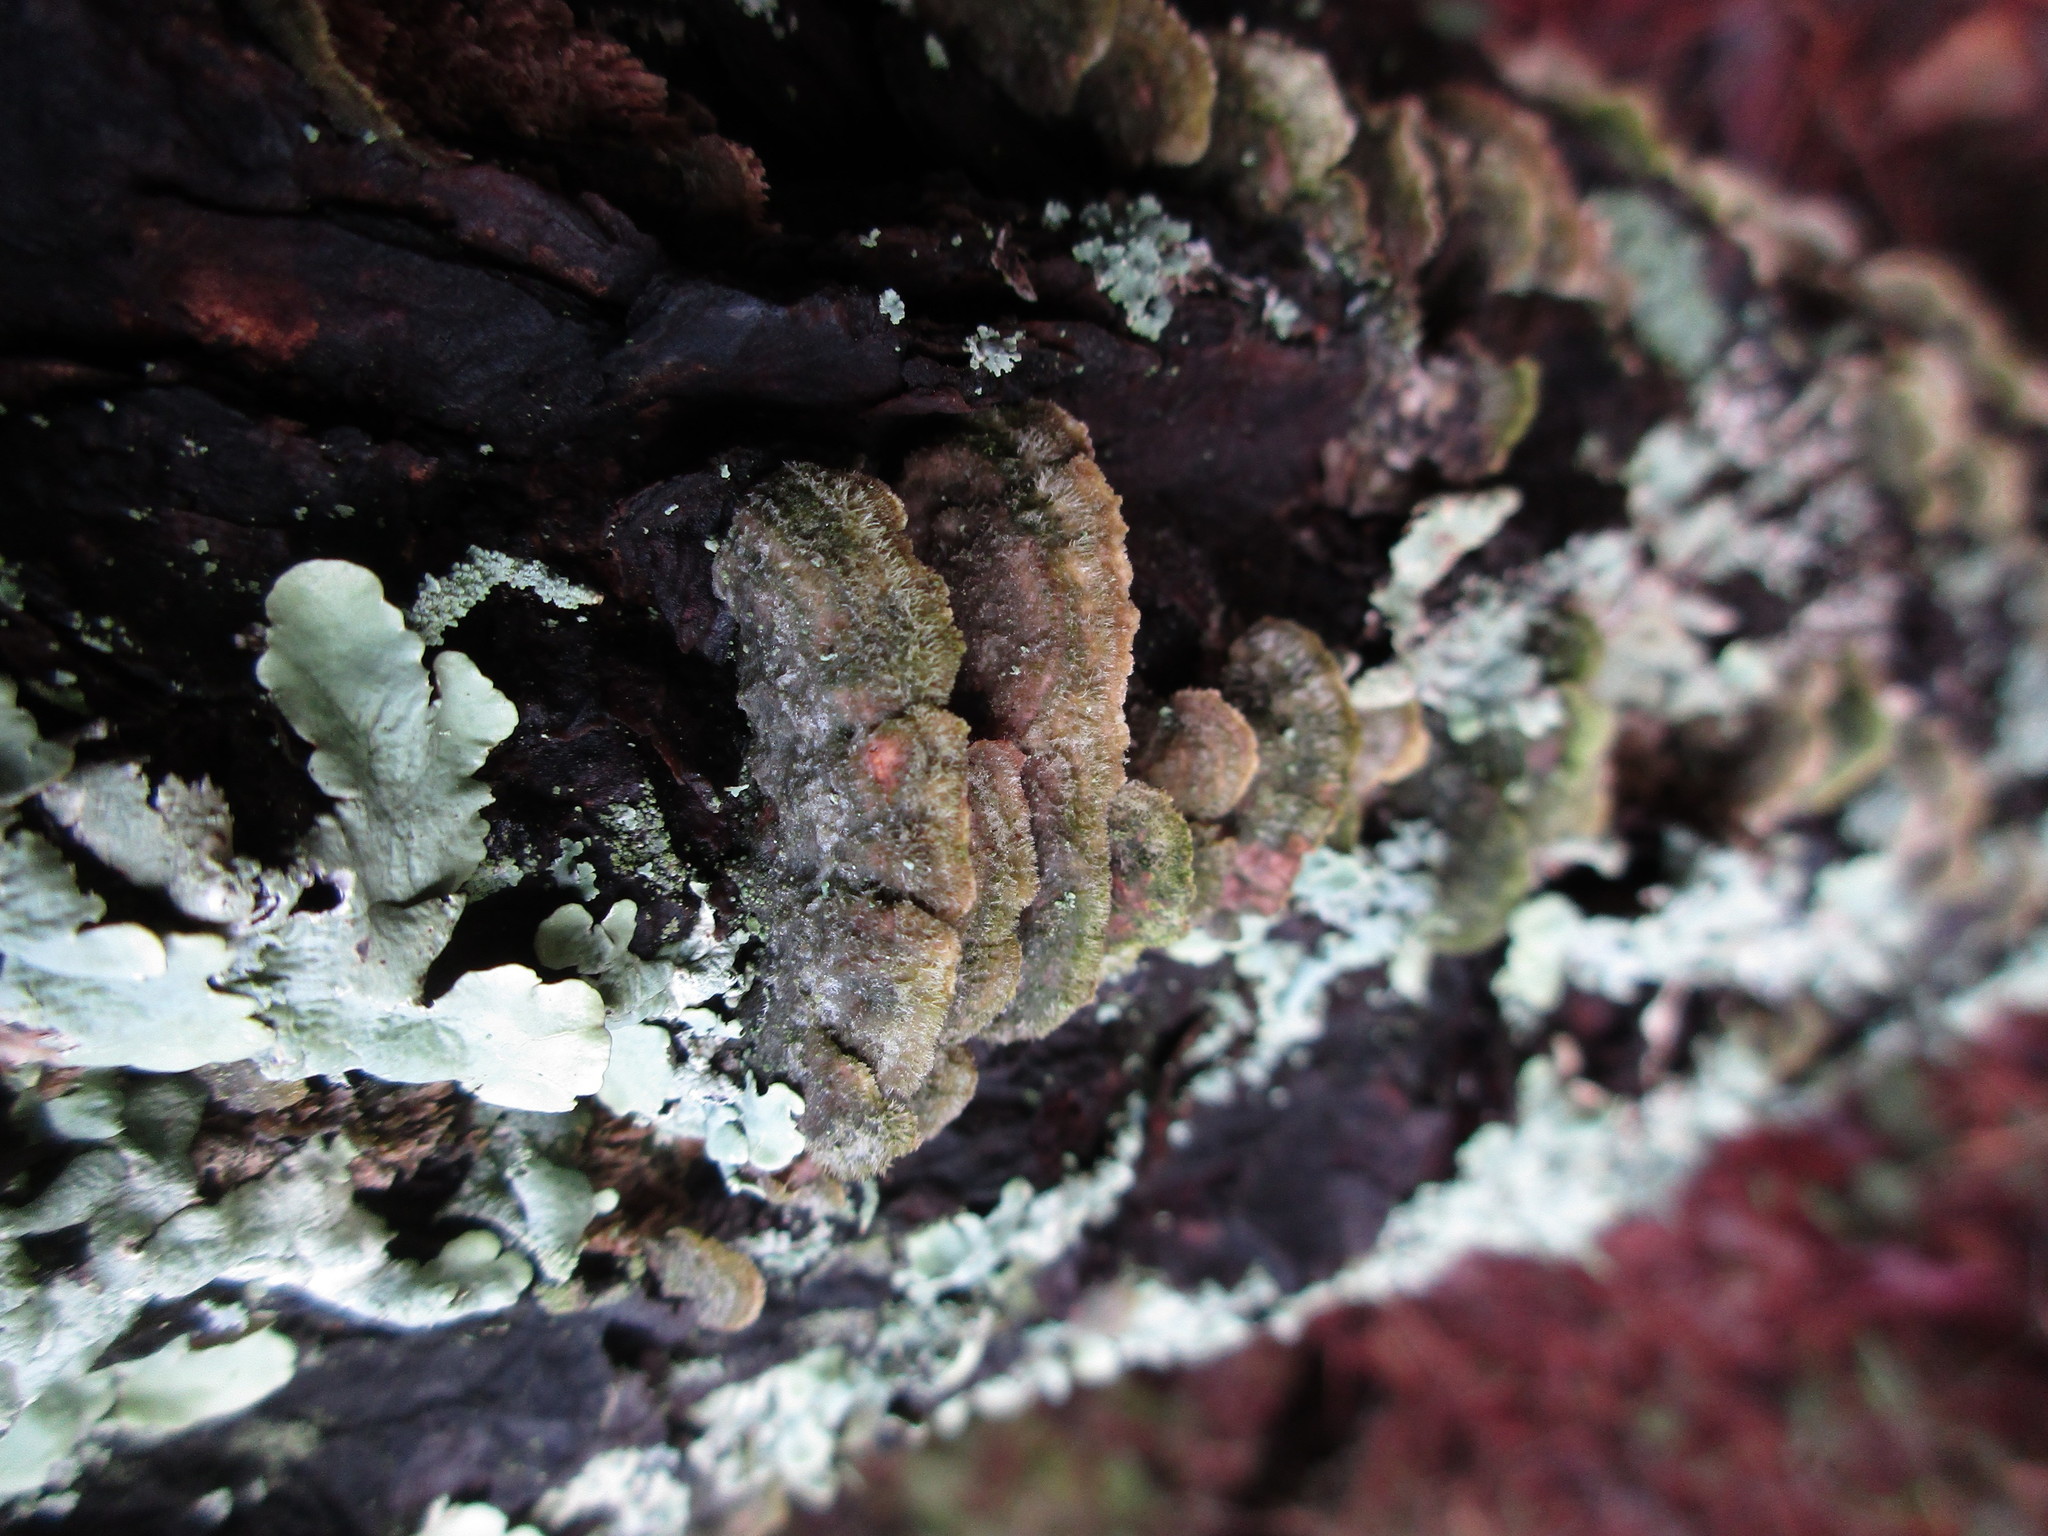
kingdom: Fungi
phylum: Basidiomycota
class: Agaricomycetes
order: Hymenochaetales
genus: Trichaptum
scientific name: Trichaptum abietinum
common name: Purplepore bracket
